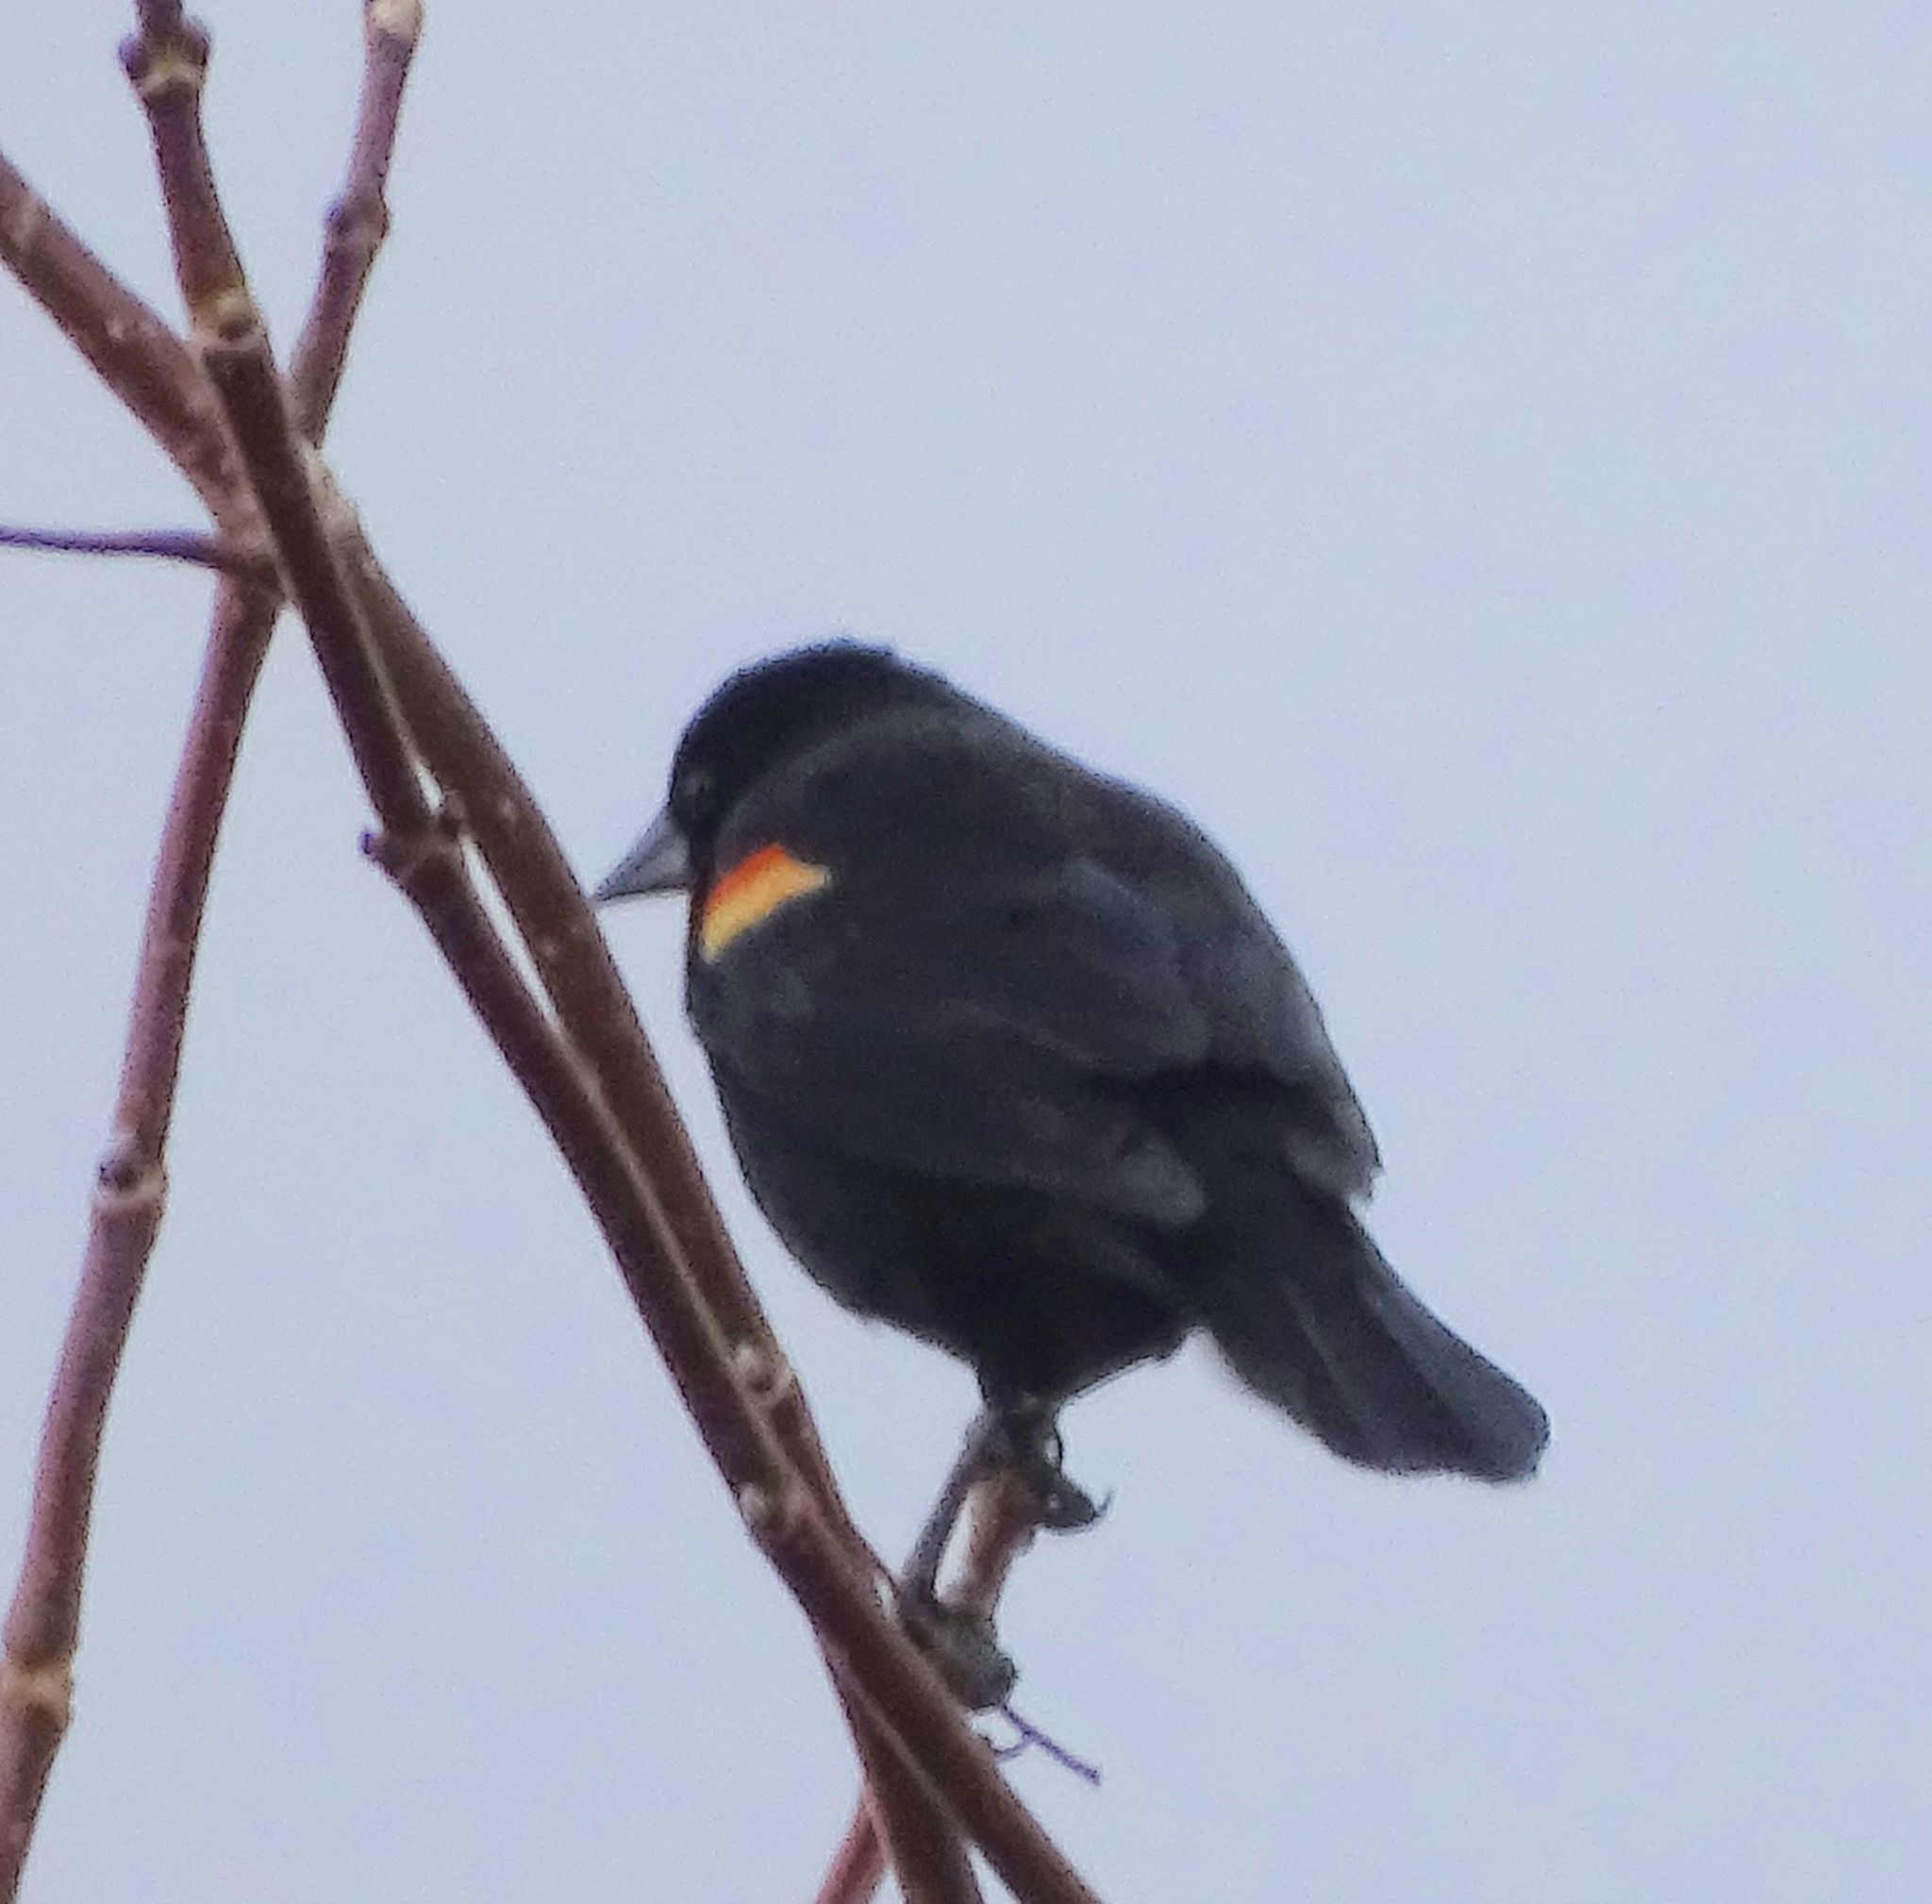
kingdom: Animalia
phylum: Chordata
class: Aves
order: Passeriformes
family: Icteridae
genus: Agelaius
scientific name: Agelaius phoeniceus
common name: Red-winged blackbird
